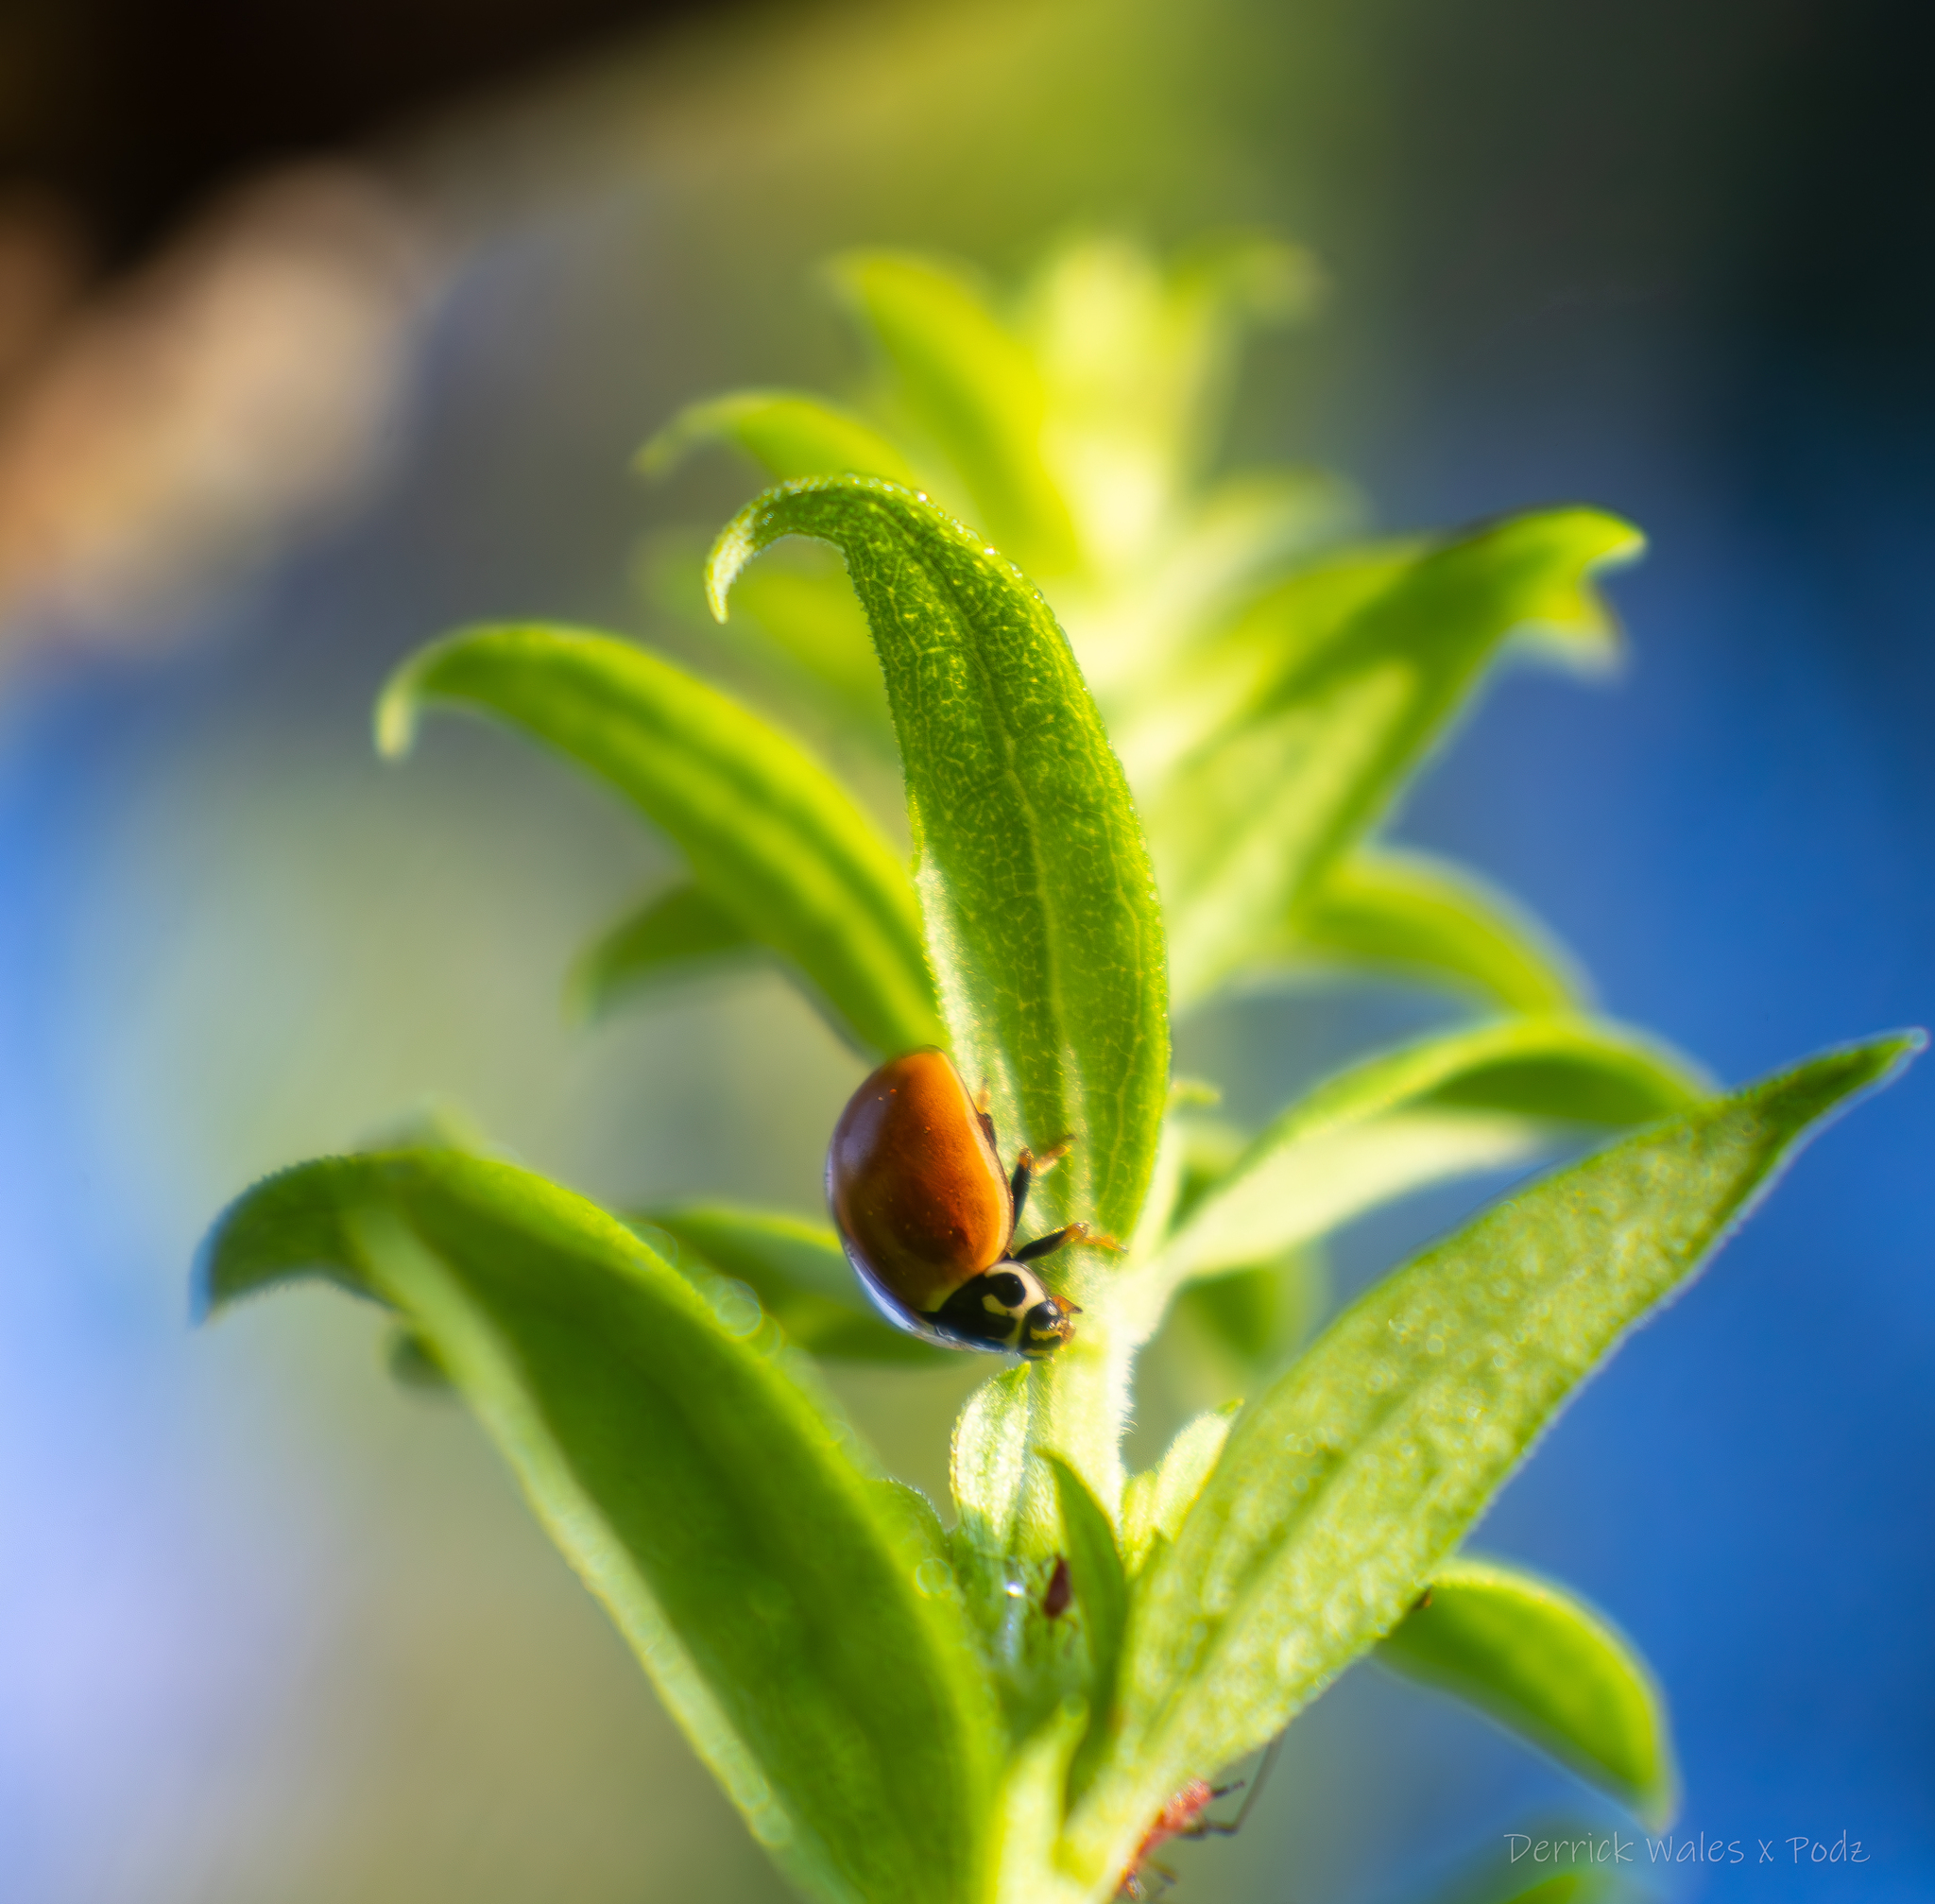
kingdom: Animalia
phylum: Arthropoda
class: Insecta
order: Coleoptera
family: Coccinellidae
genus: Cycloneda
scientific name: Cycloneda munda
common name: Polished lady beetle
